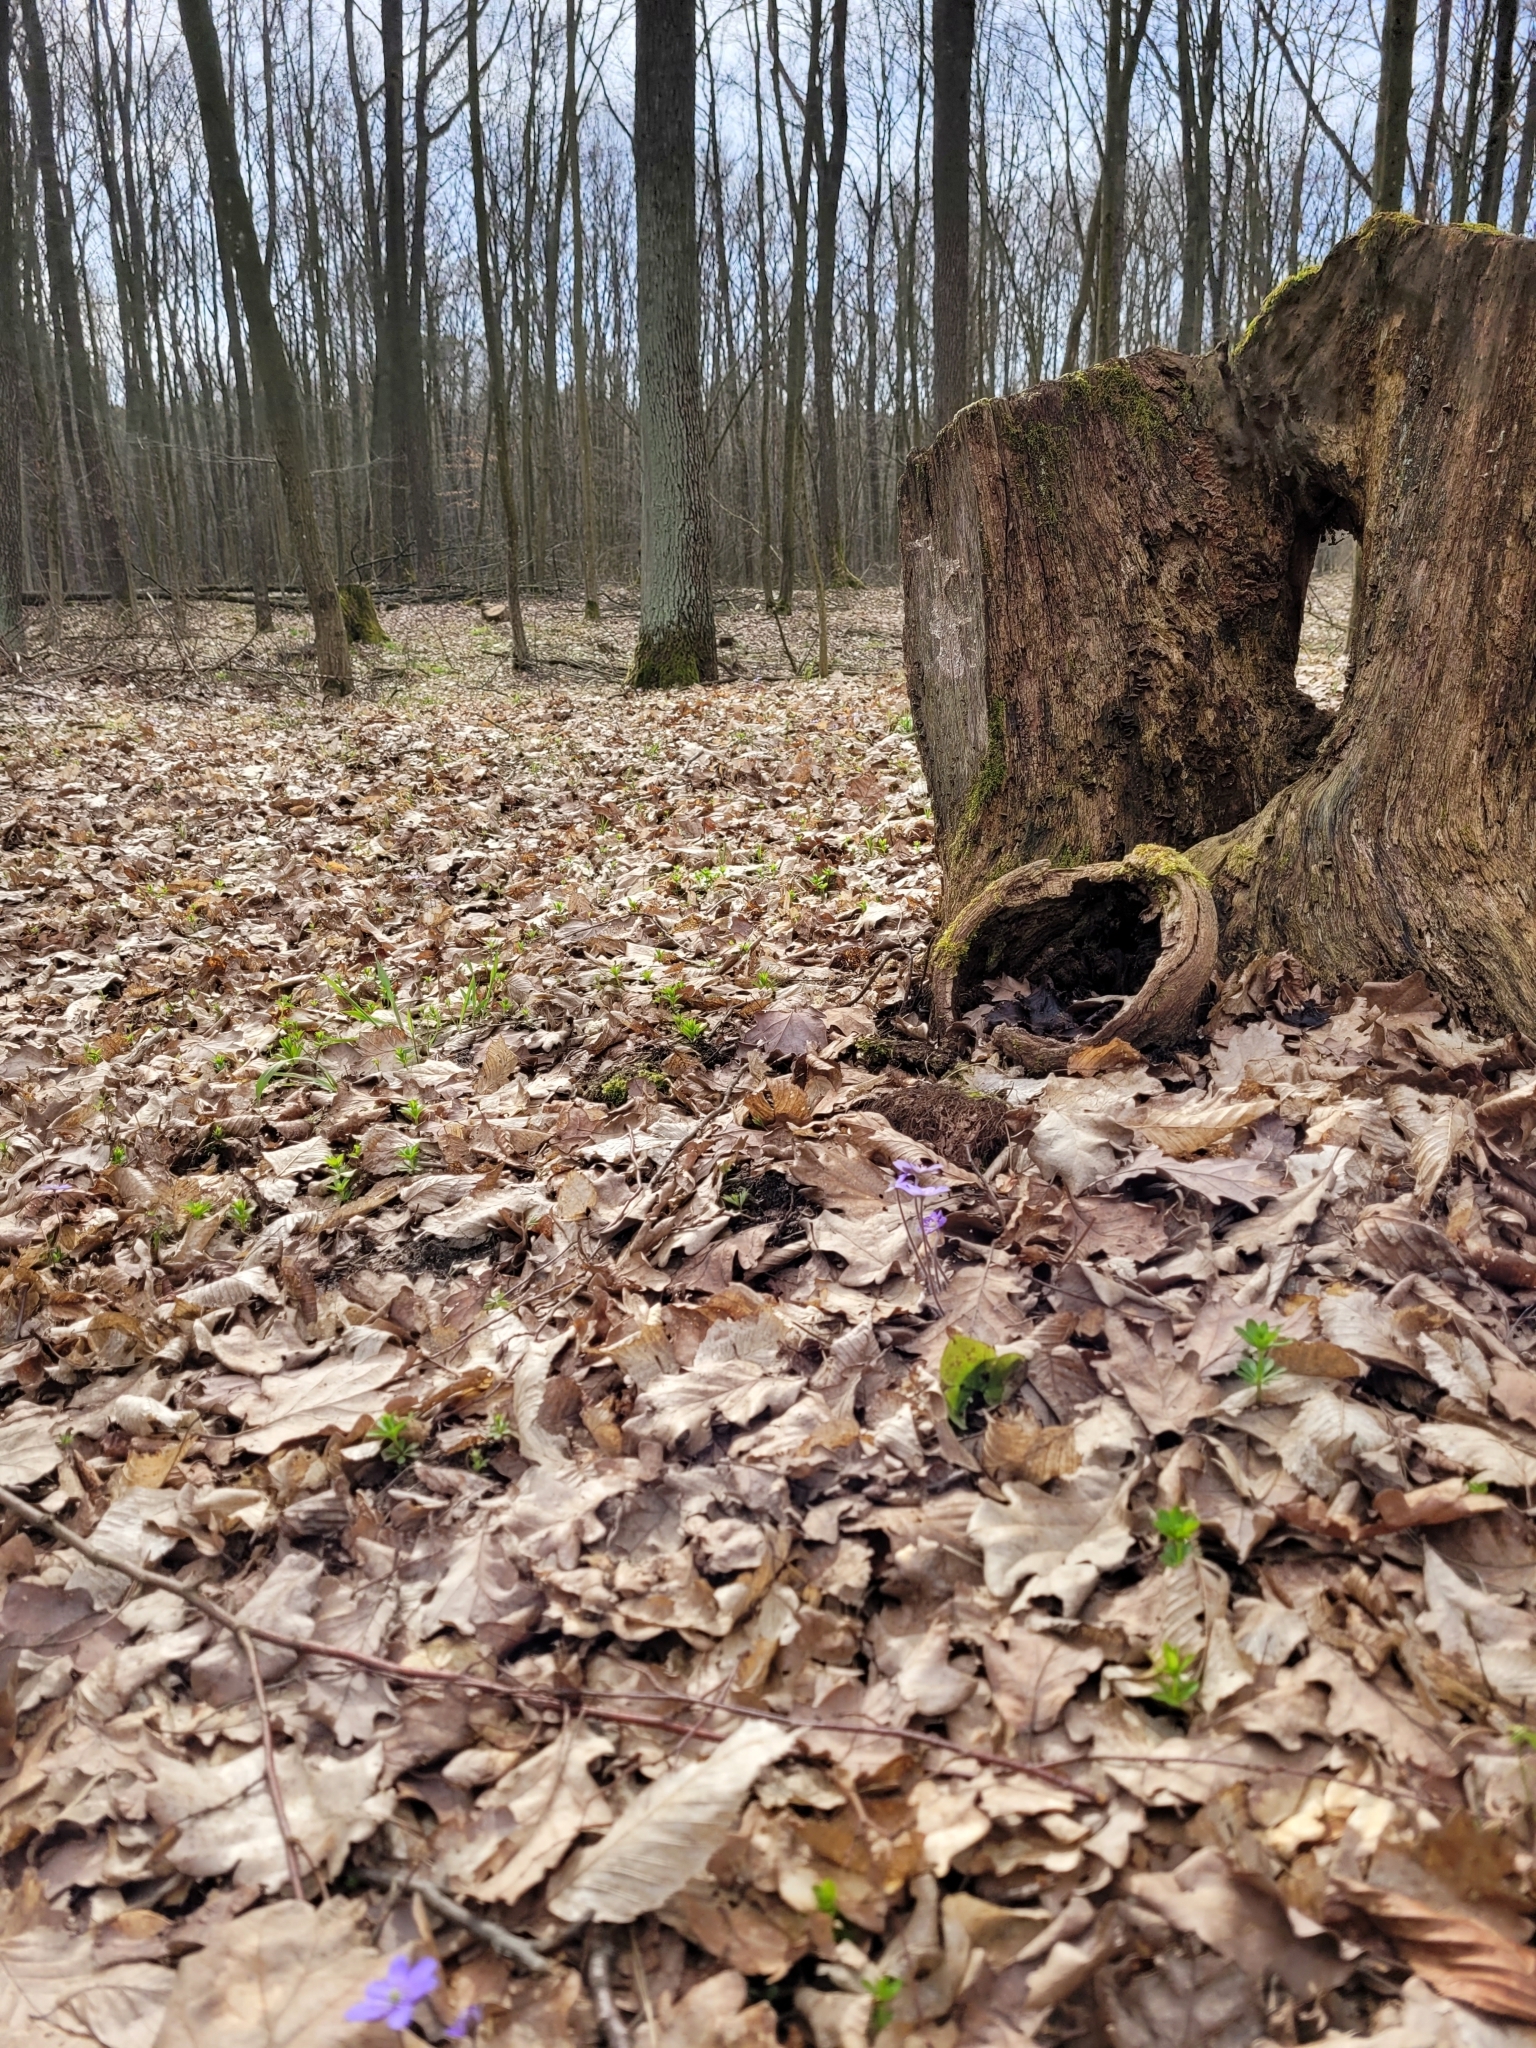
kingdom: Plantae
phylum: Tracheophyta
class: Magnoliopsida
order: Caryophyllales
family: Caryophyllaceae
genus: Rabelera
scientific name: Rabelera holostea
